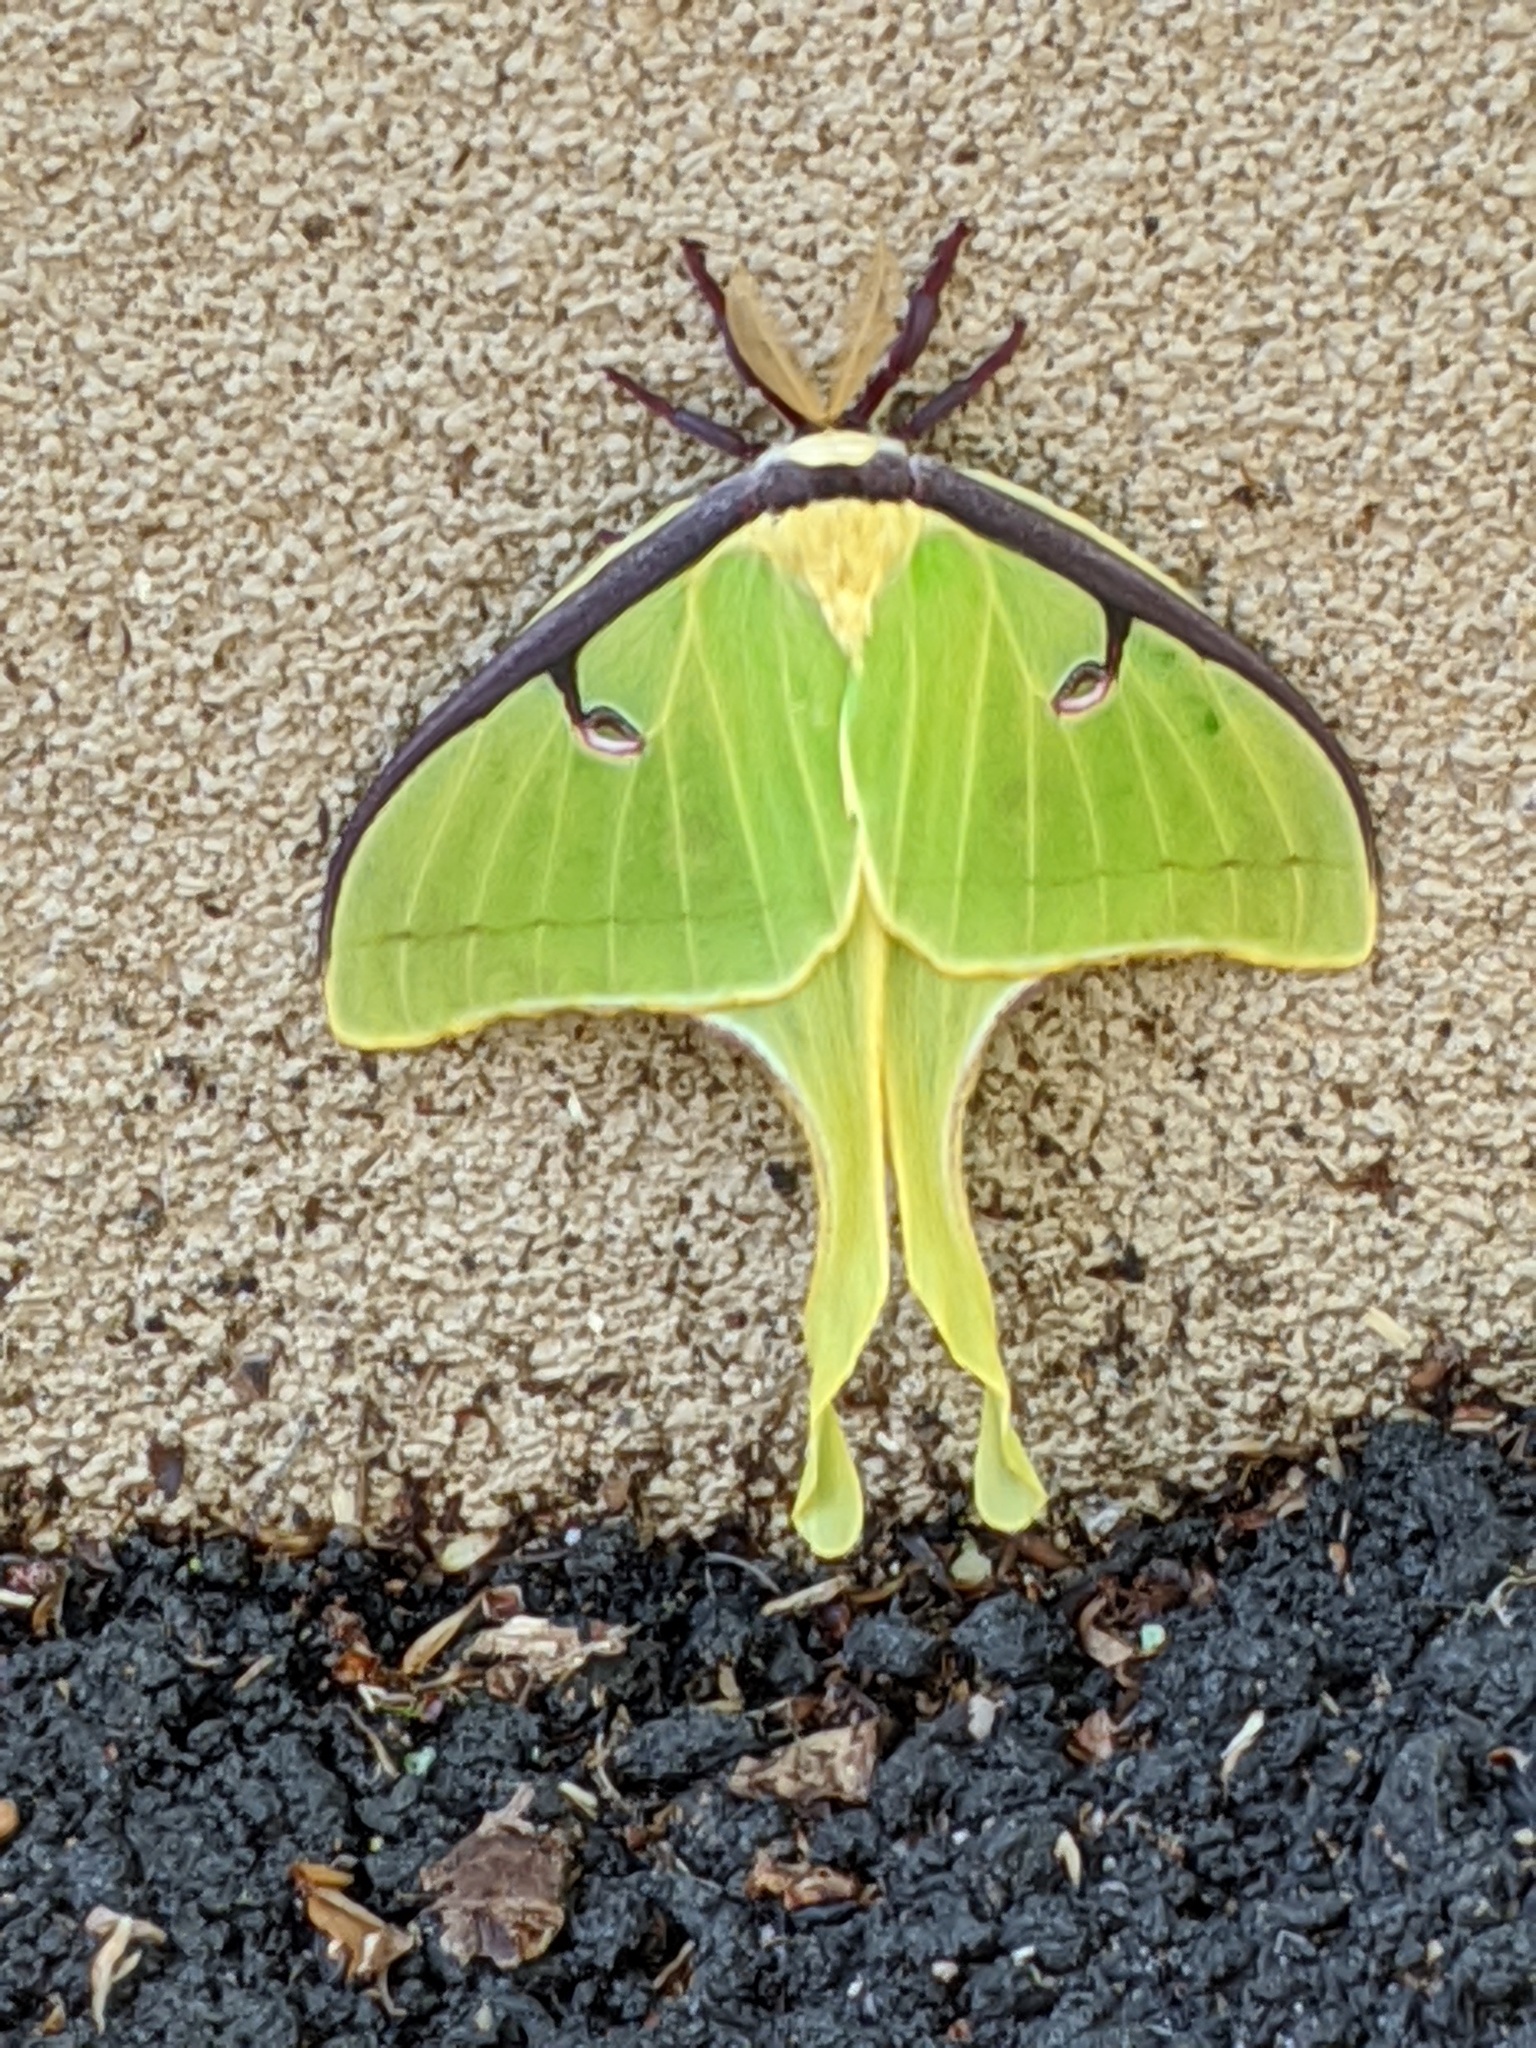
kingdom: Animalia
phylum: Arthropoda
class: Insecta
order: Lepidoptera
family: Saturniidae
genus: Actias
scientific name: Actias luna
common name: Luna moth
